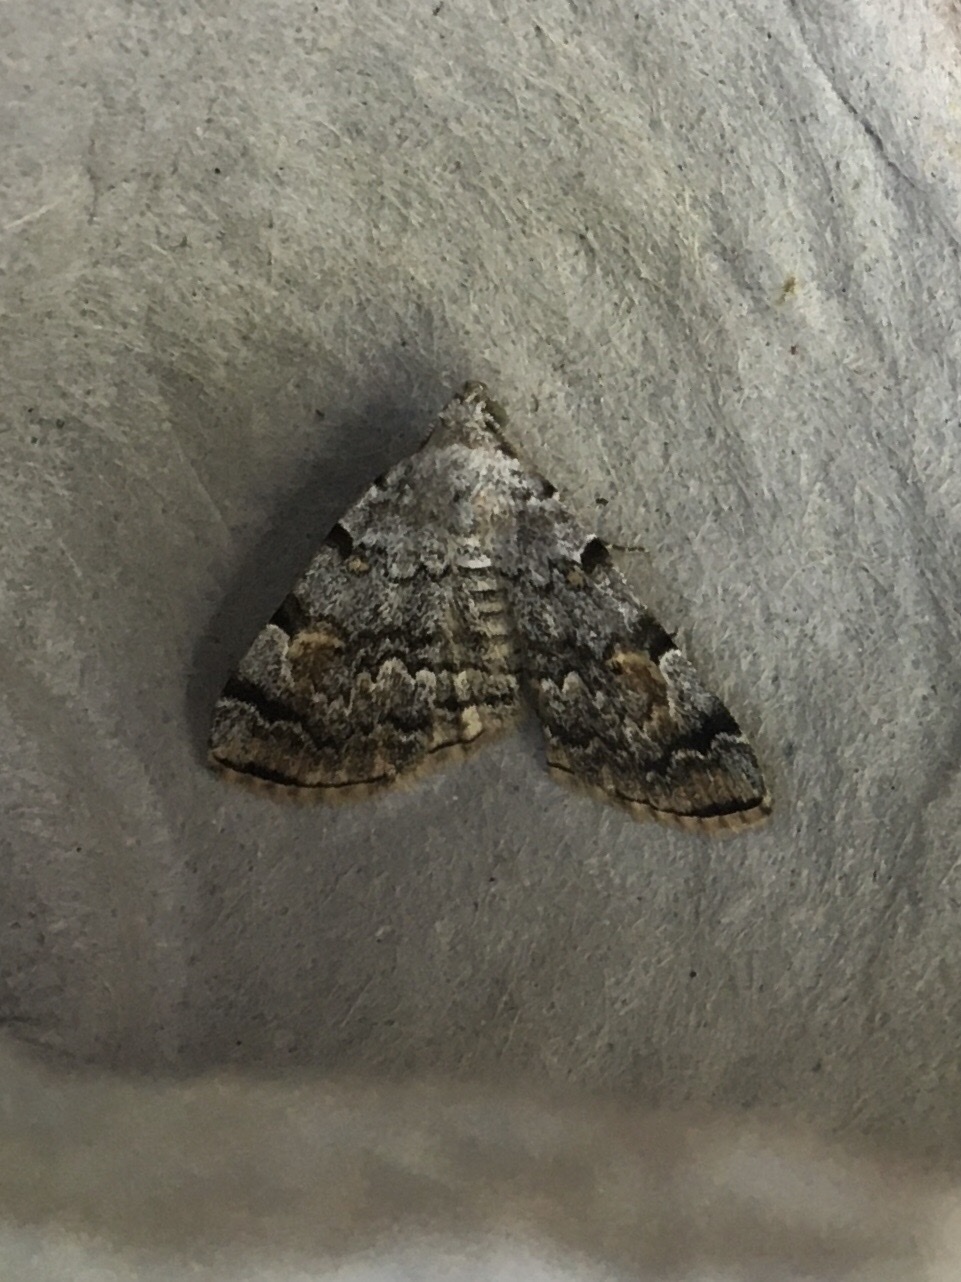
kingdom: Animalia
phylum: Arthropoda
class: Insecta
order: Lepidoptera
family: Erebidae
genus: Idia
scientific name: Idia americalis
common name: American idia moth
